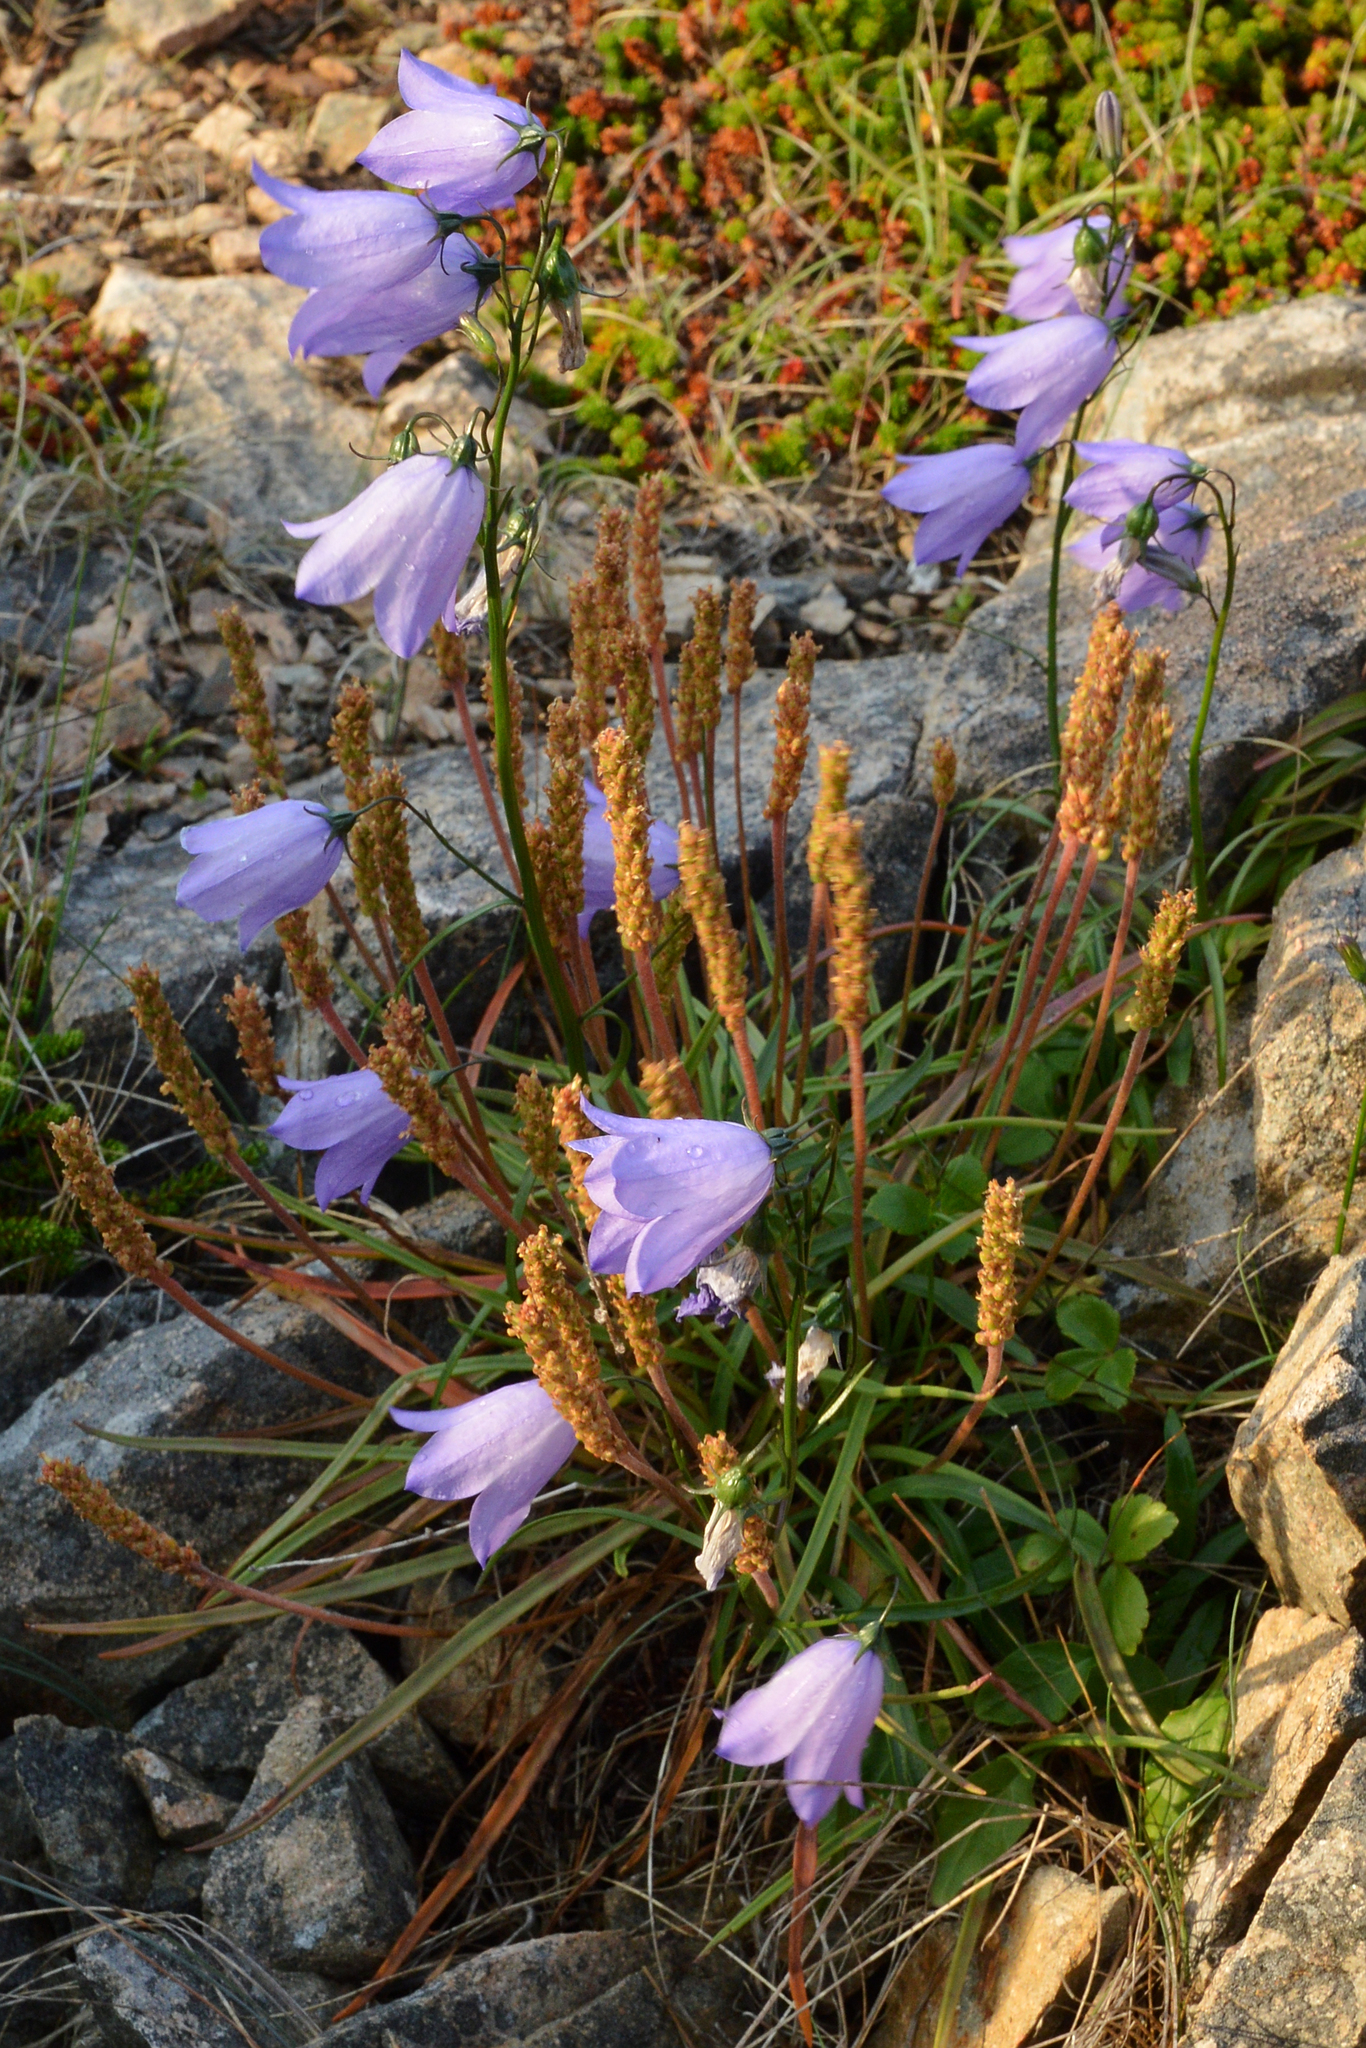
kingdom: Plantae
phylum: Tracheophyta
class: Magnoliopsida
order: Lamiales
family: Plantaginaceae
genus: Plantago
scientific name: Plantago maritima
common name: Sea plantain
